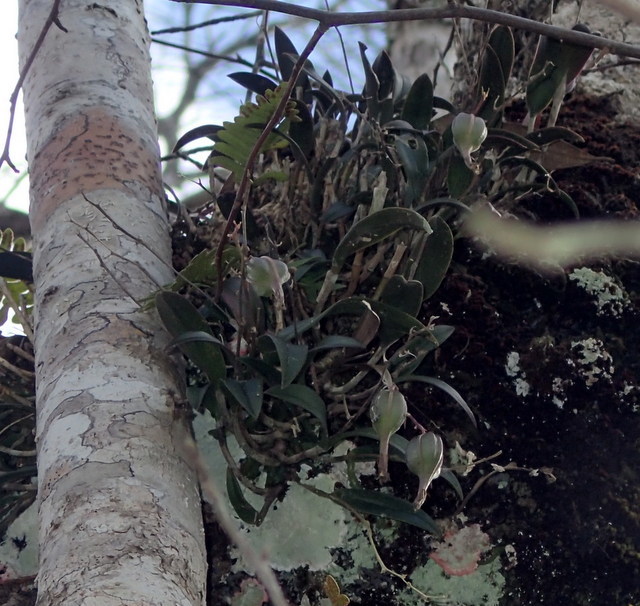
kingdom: Plantae
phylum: Tracheophyta
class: Liliopsida
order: Asparagales
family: Orchidaceae
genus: Epidendrum
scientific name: Epidendrum conopseum
